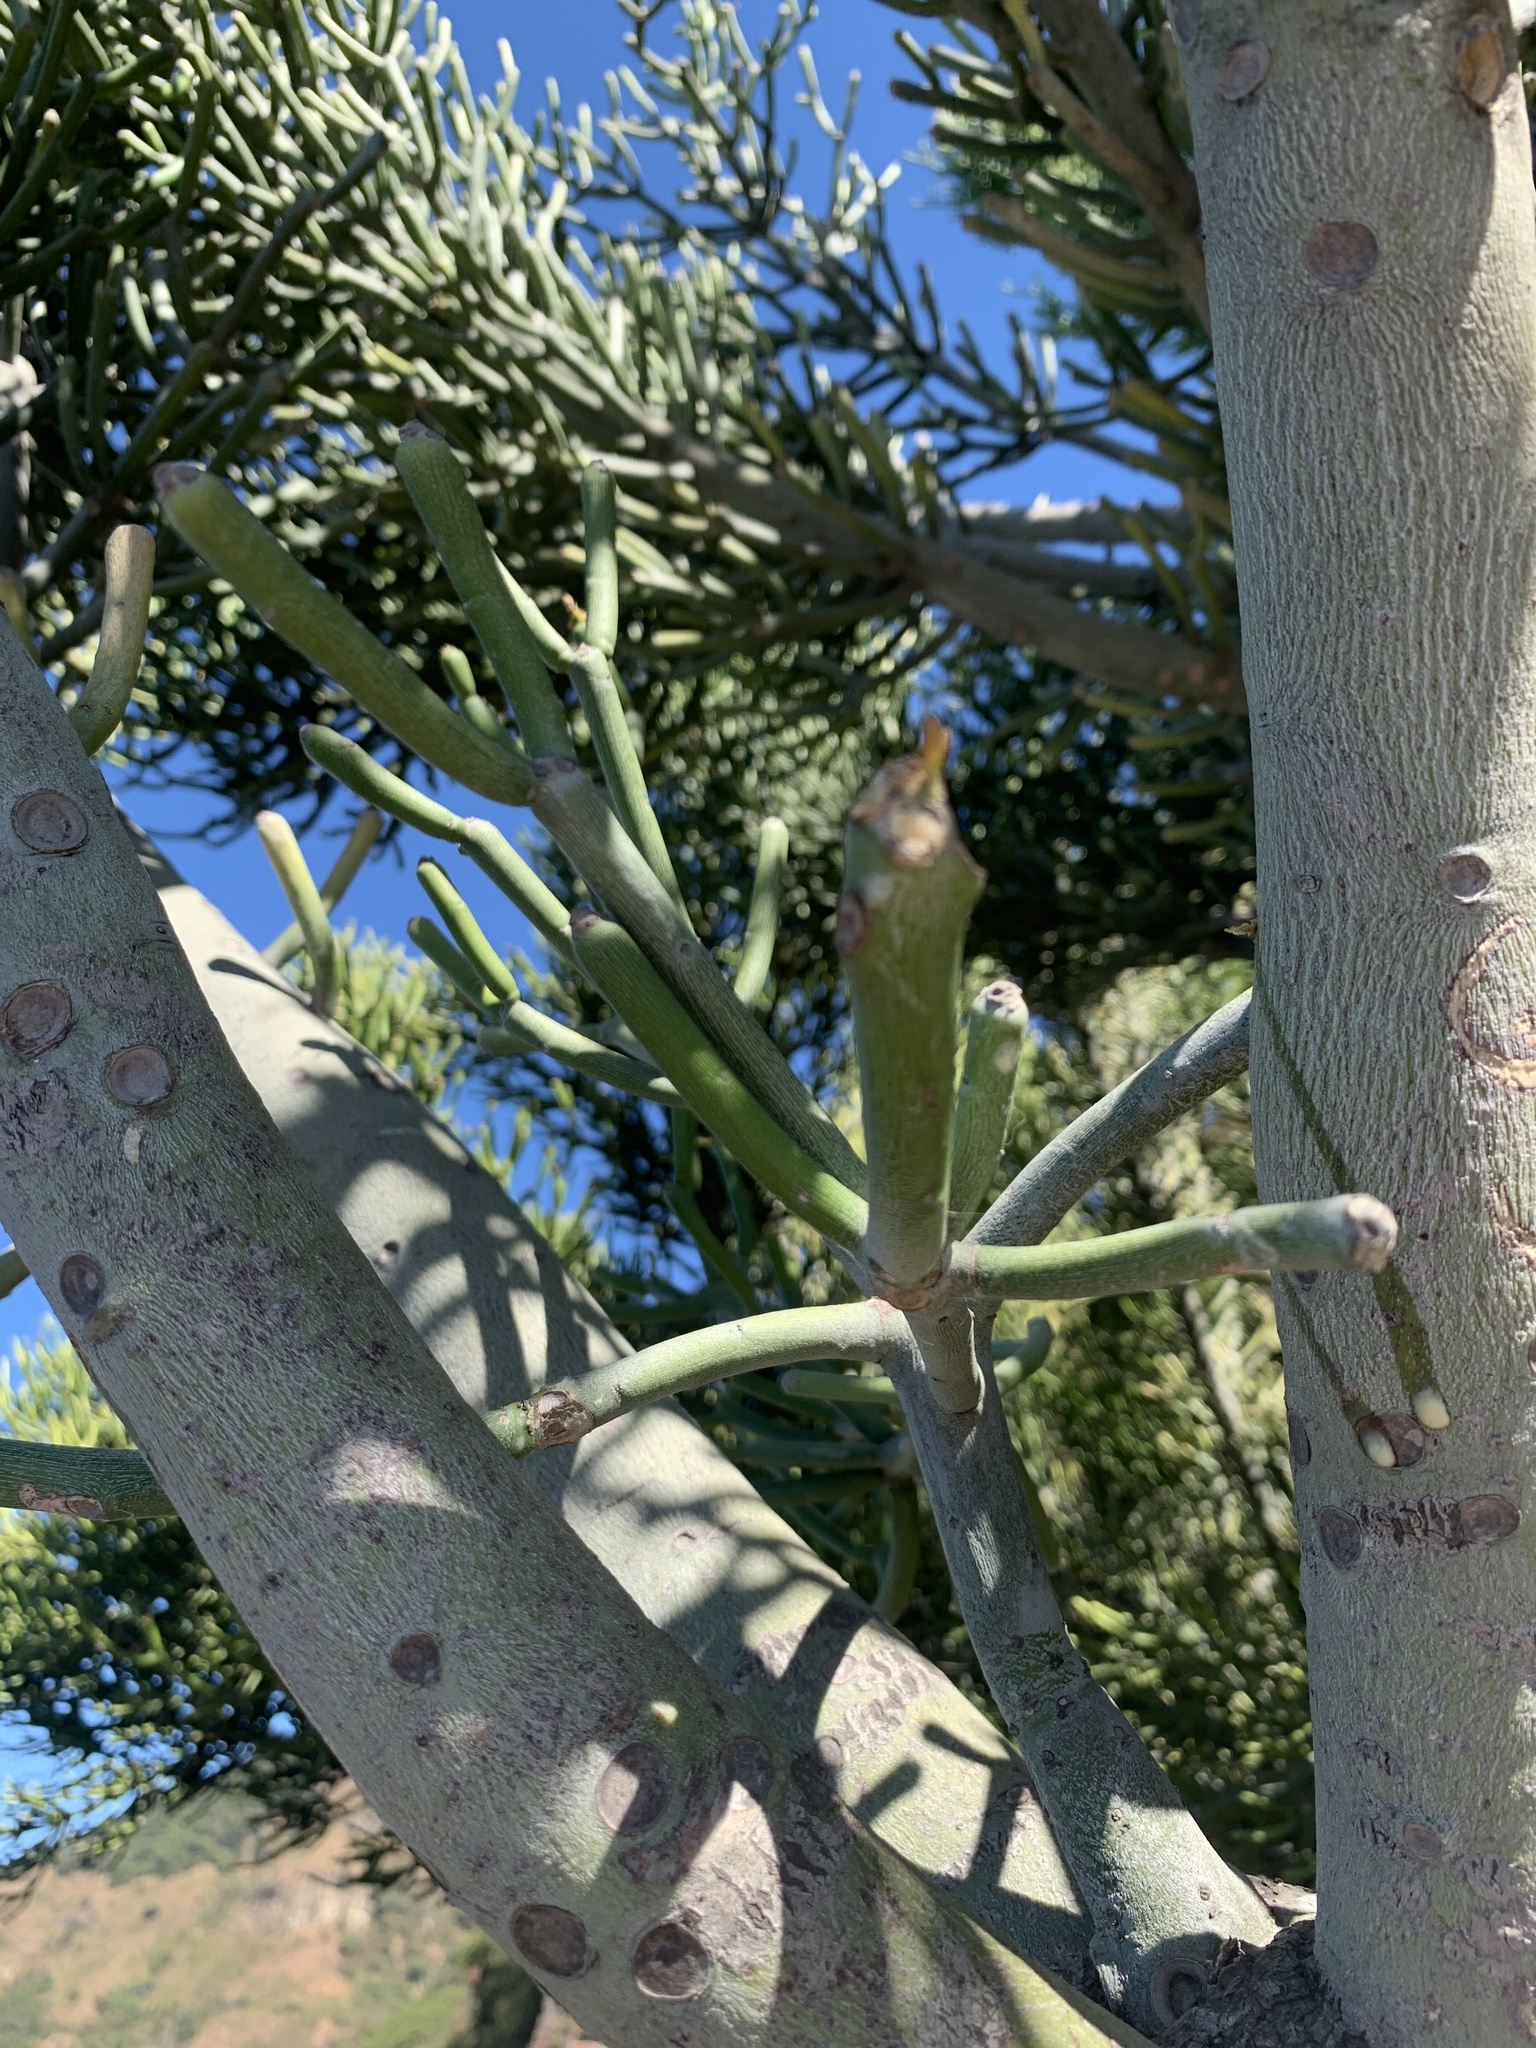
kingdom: Plantae
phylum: Tracheophyta
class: Magnoliopsida
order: Malpighiales
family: Euphorbiaceae
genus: Euphorbia
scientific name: Euphorbia tirucalli
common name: Indiantree spurge
